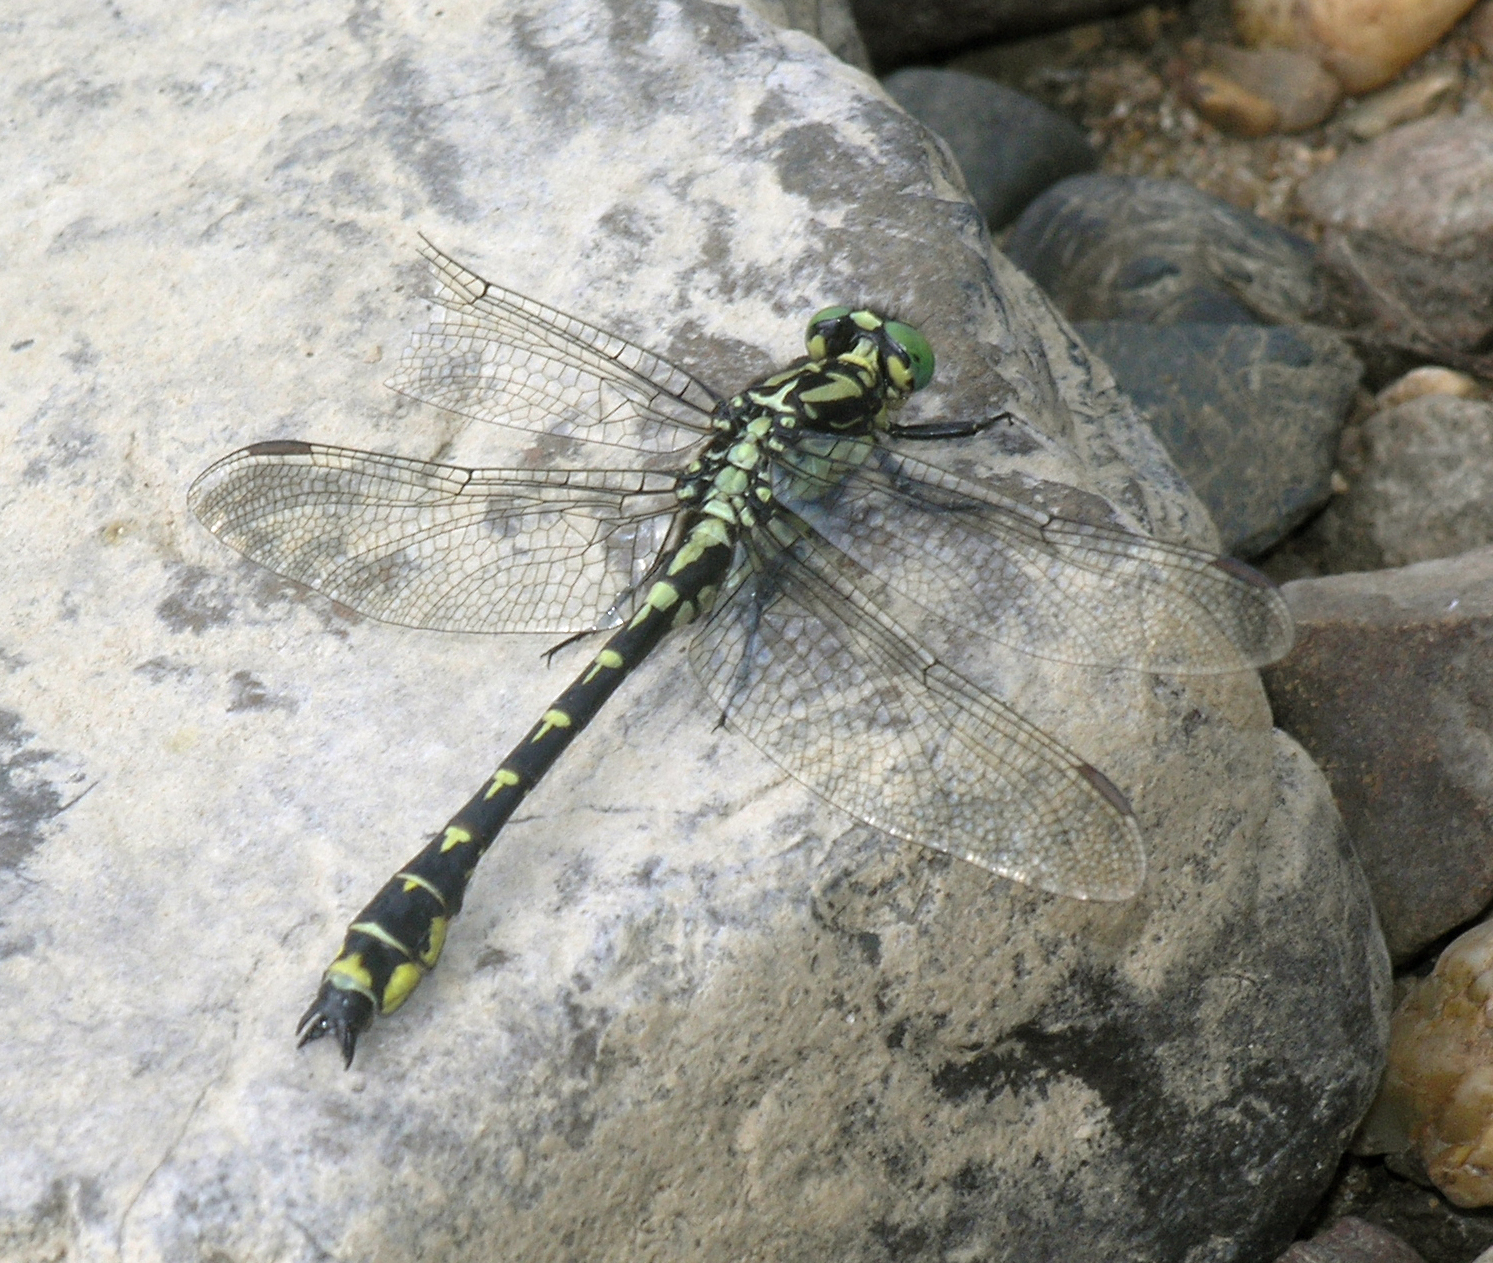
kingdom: Animalia
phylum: Arthropoda
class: Insecta
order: Odonata
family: Gomphidae
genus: Shaogomphus
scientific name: Shaogomphus schmidti
